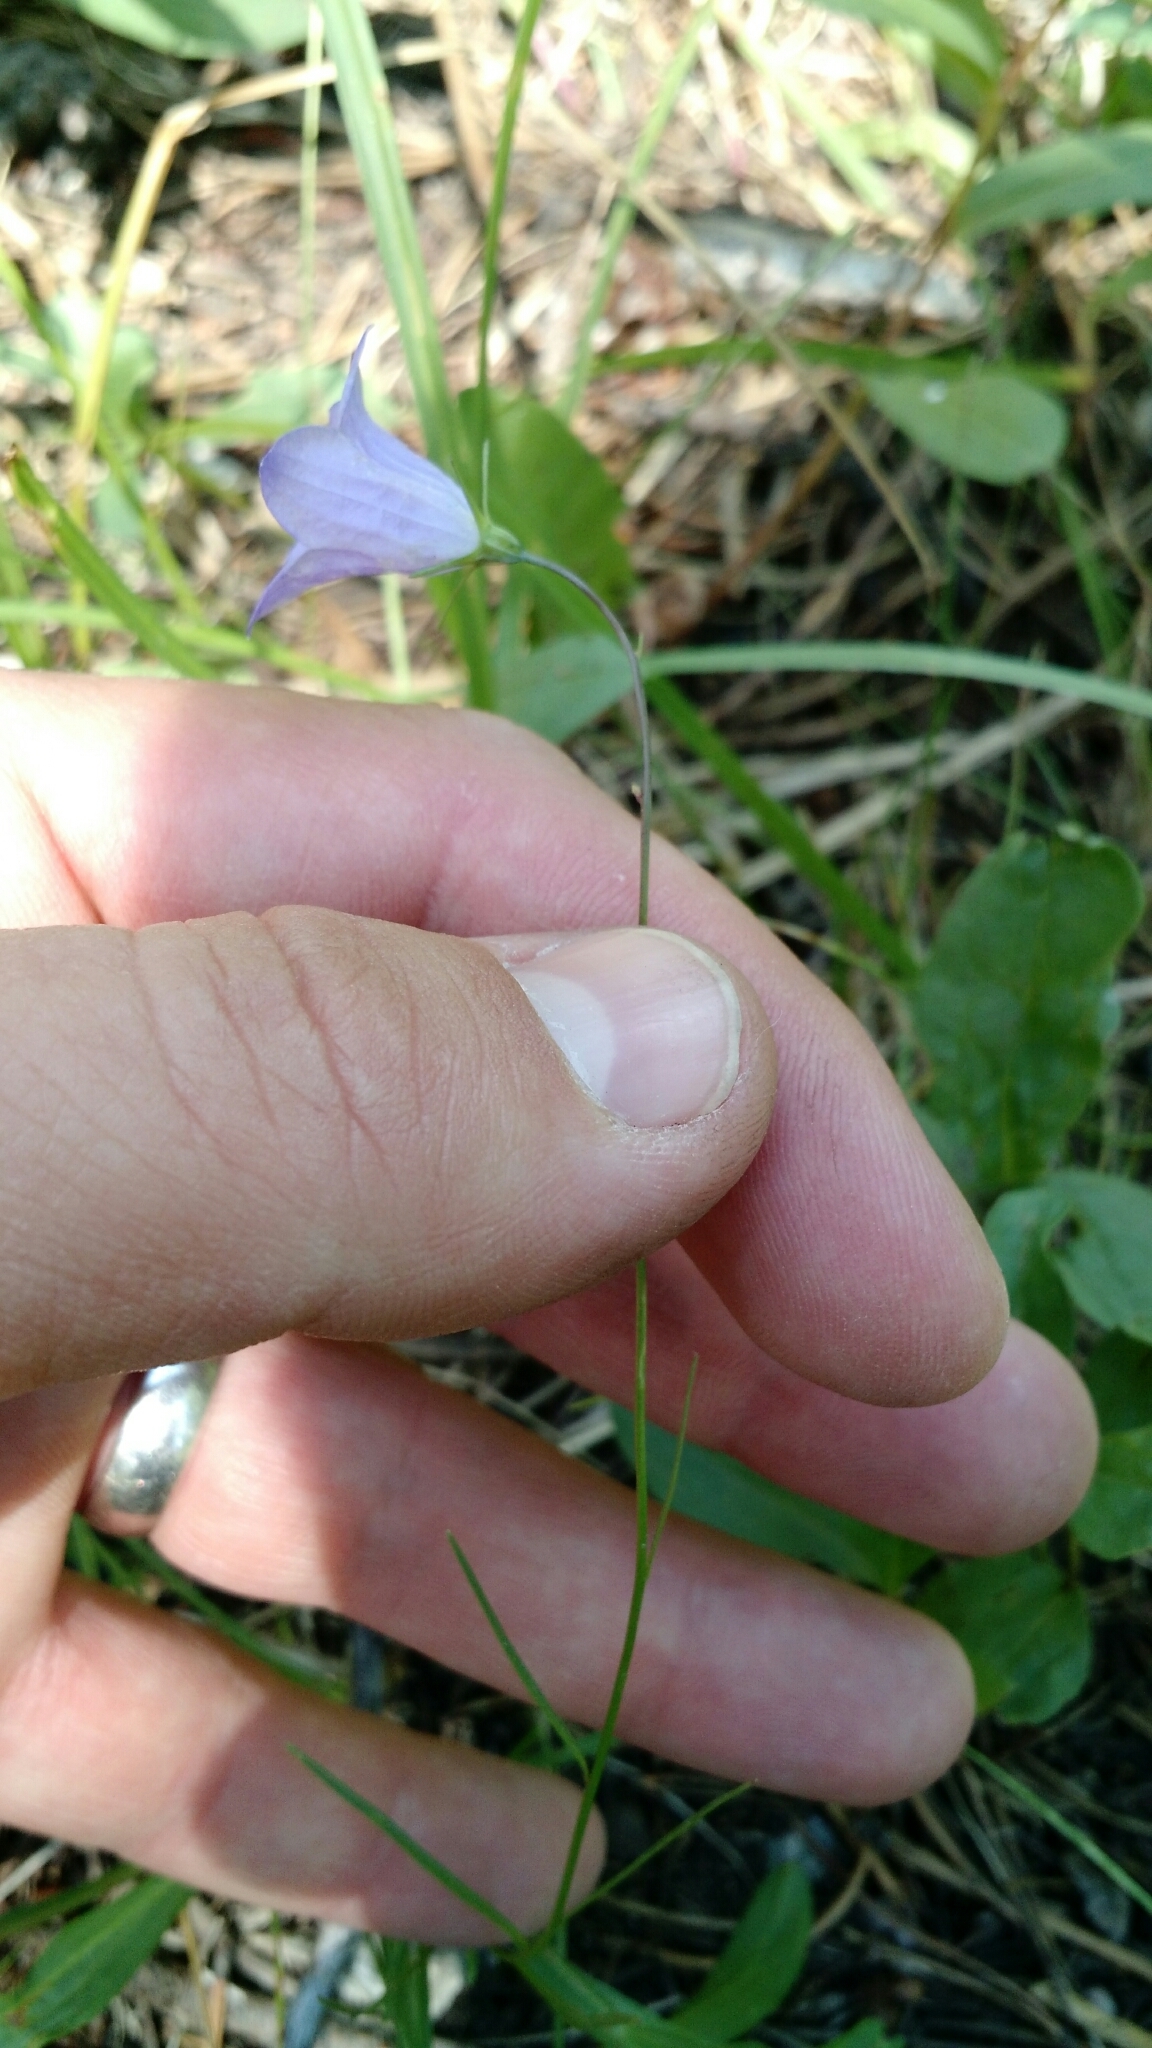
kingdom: Plantae
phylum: Tracheophyta
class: Magnoliopsida
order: Asterales
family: Campanulaceae
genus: Campanula
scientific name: Campanula petiolata
